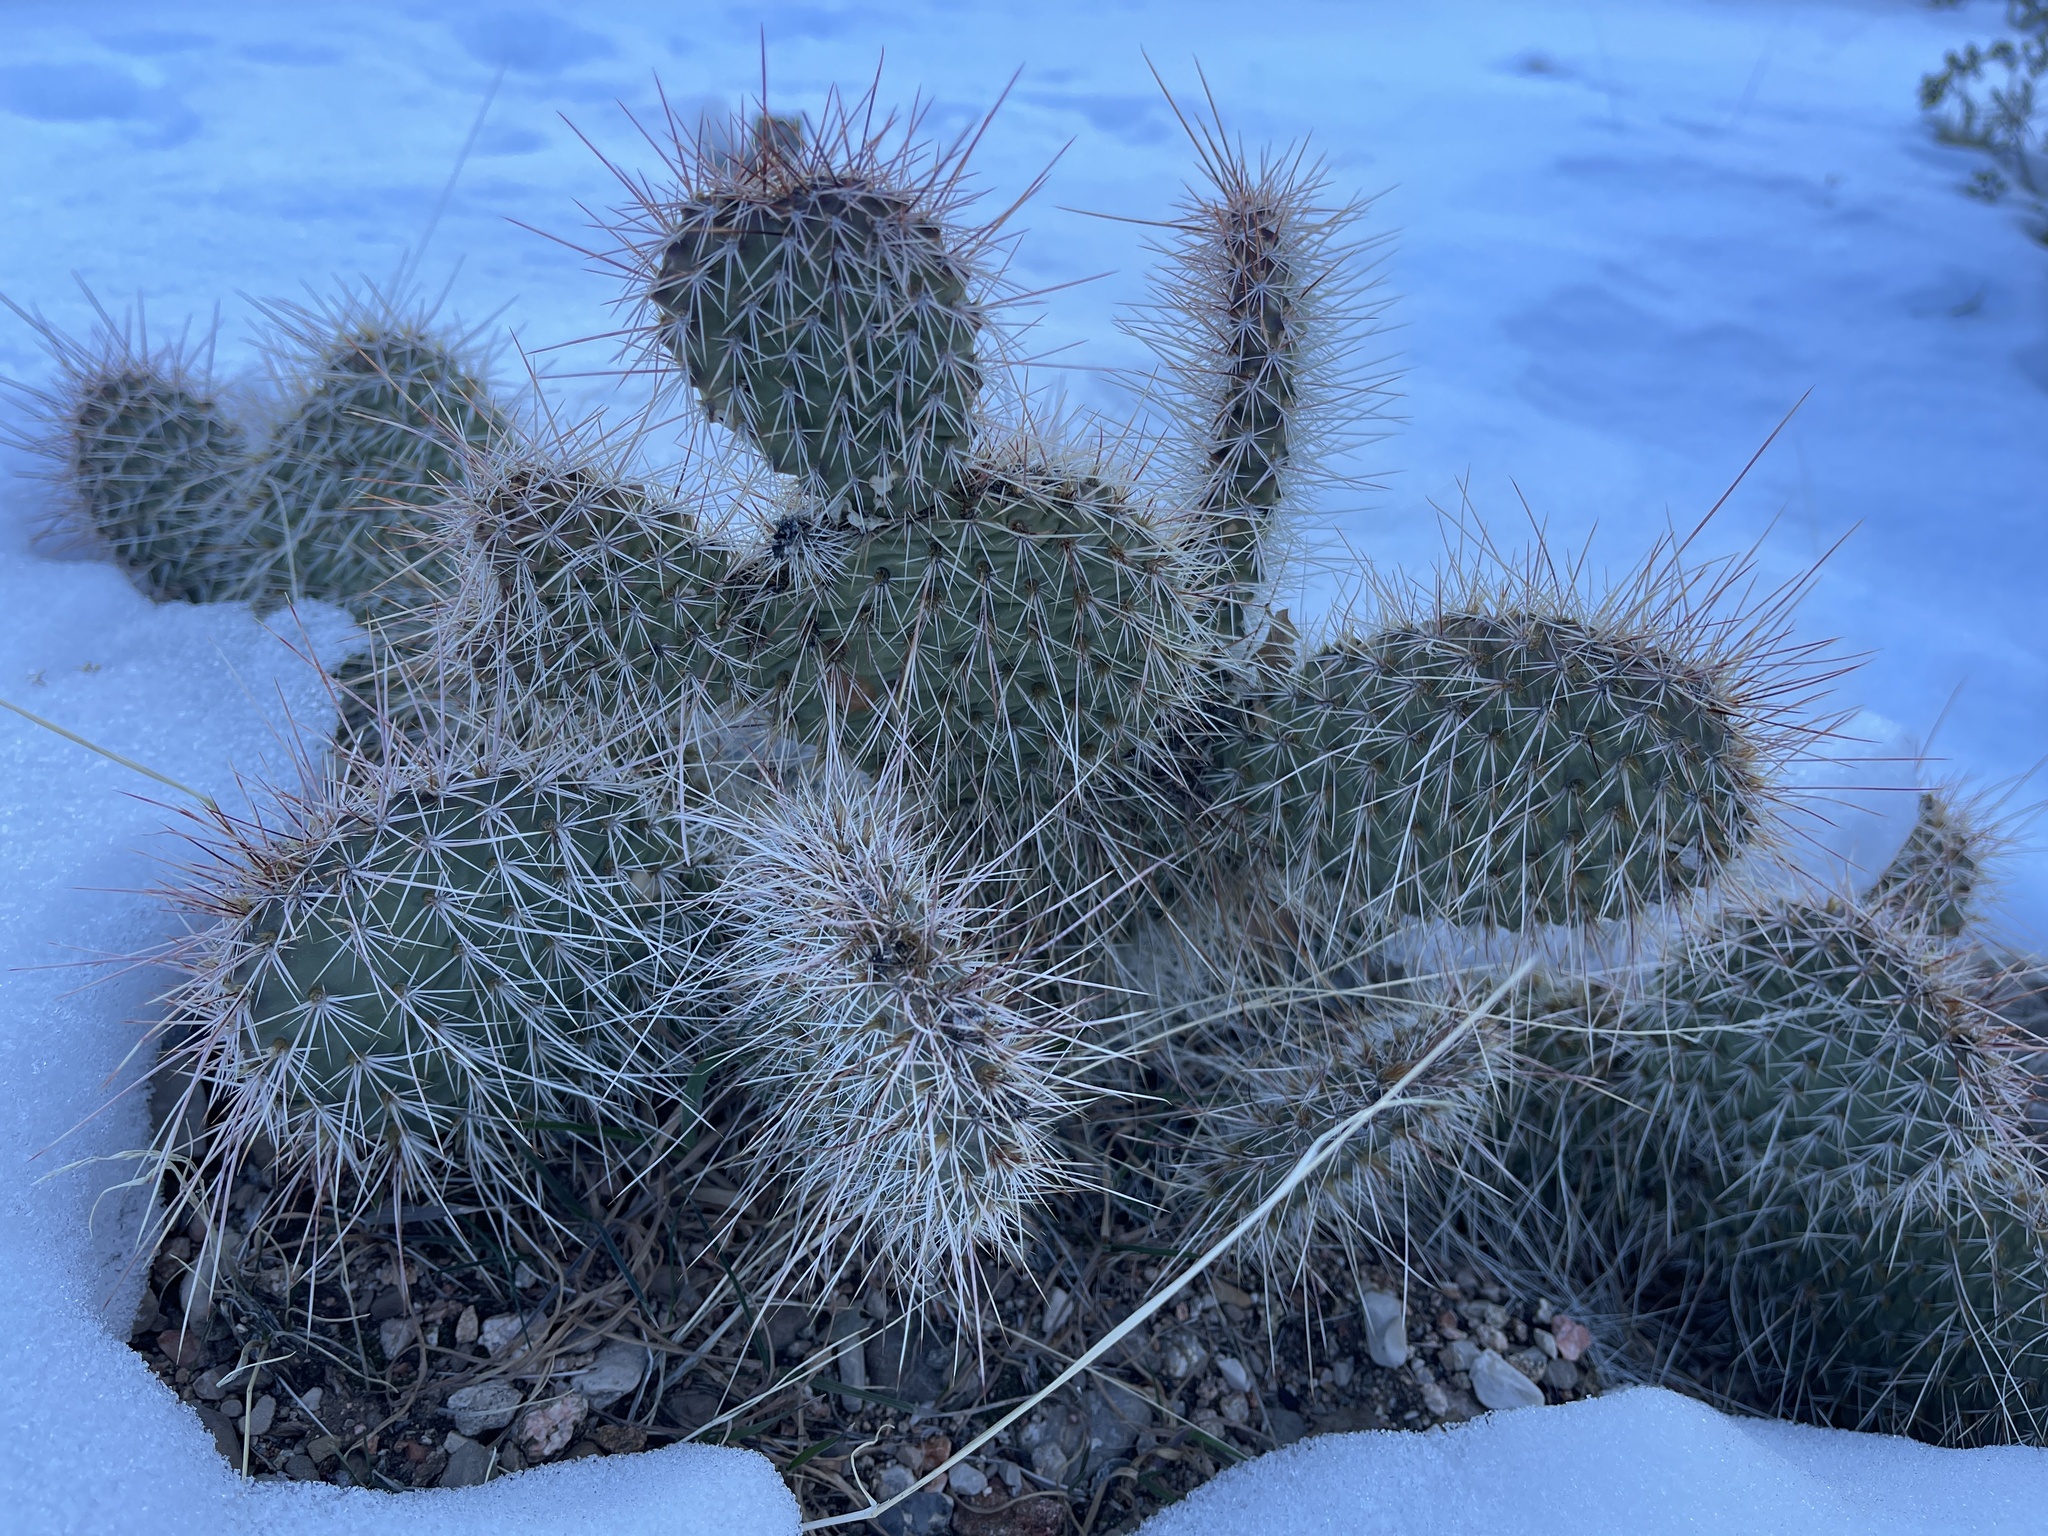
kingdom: Plantae
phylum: Tracheophyta
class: Magnoliopsida
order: Caryophyllales
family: Cactaceae
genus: Opuntia
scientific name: Opuntia polyacantha
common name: Plains prickly-pear
